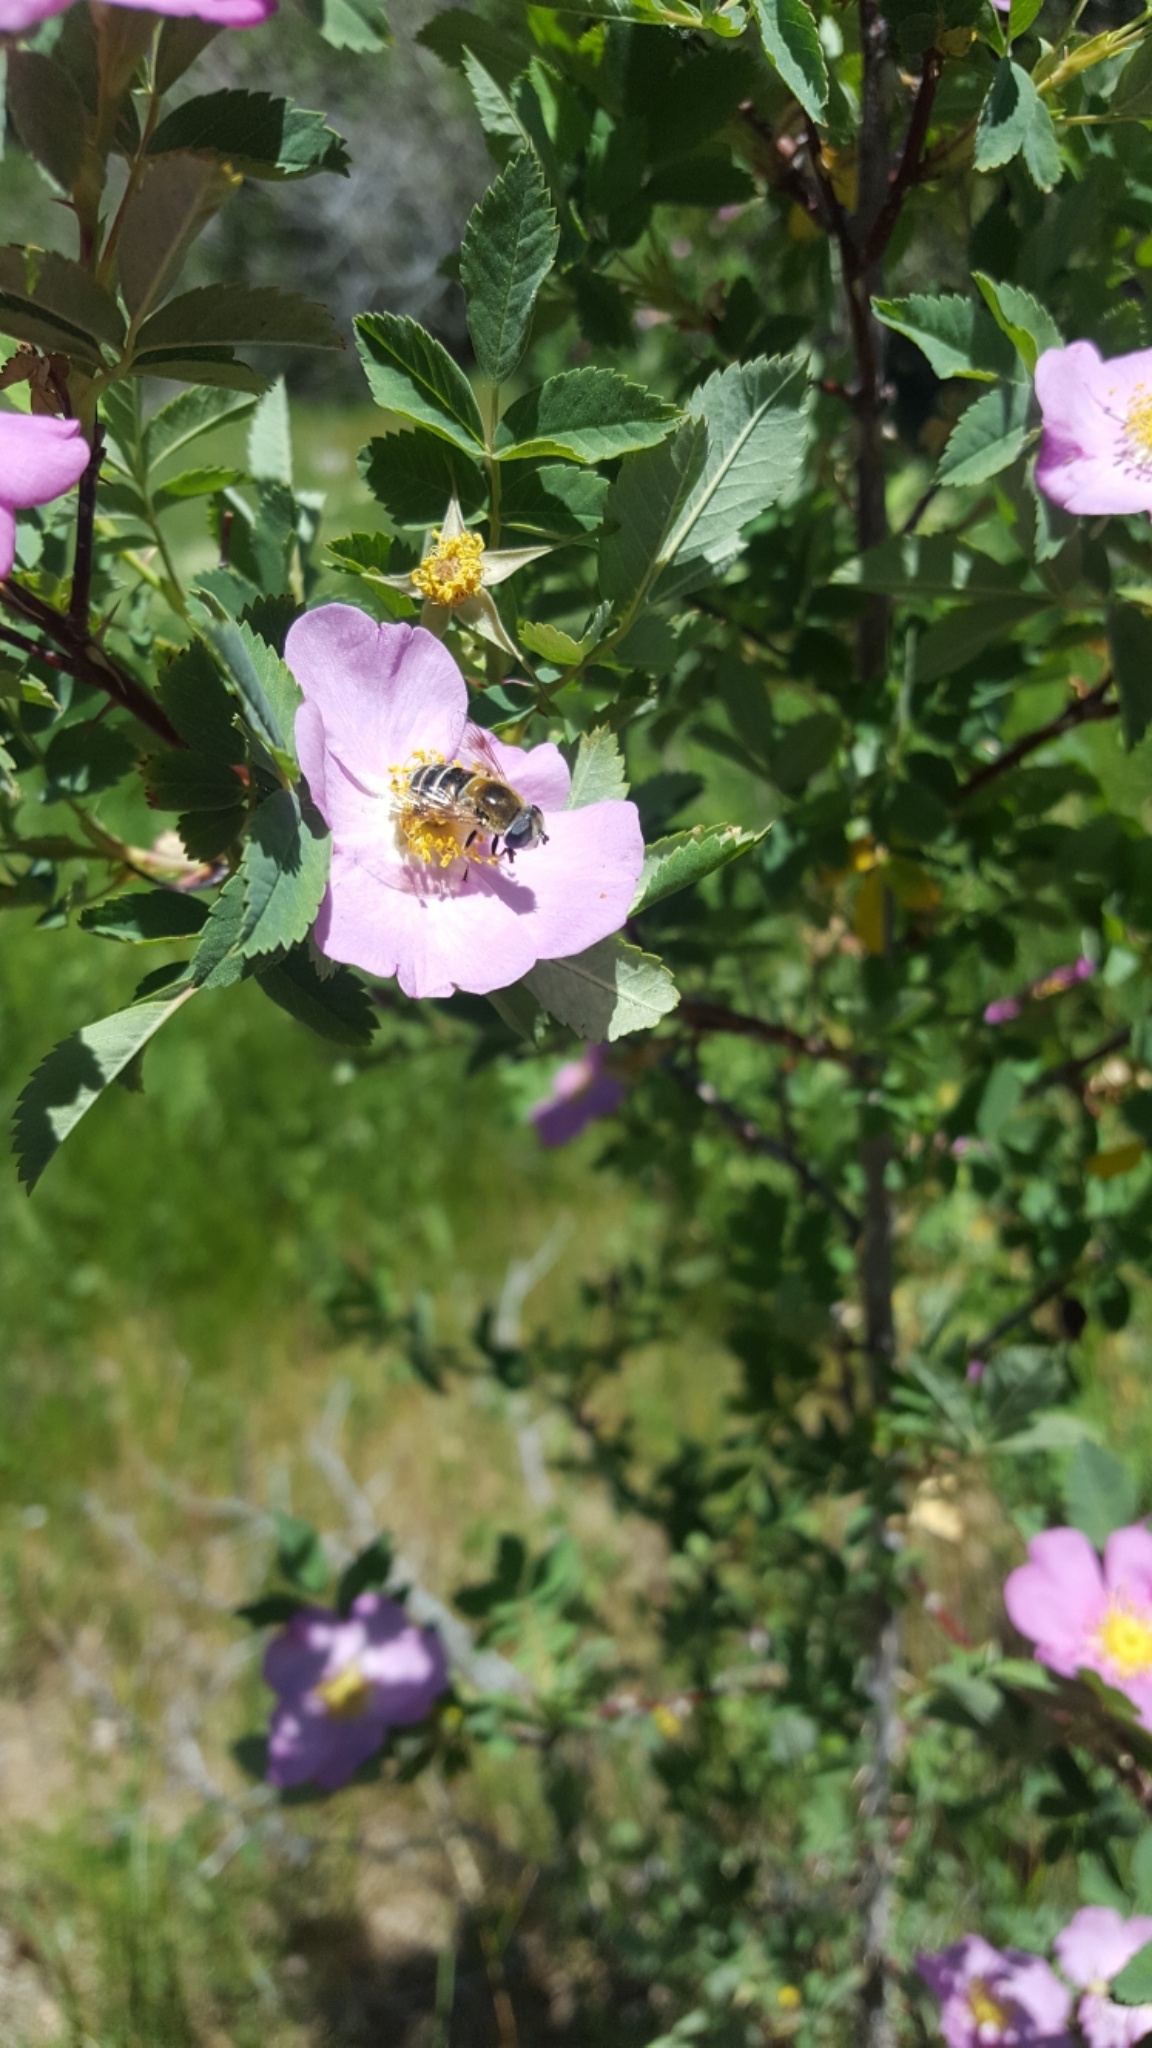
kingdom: Plantae
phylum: Tracheophyta
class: Magnoliopsida
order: Rosales
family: Rosaceae
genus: Rosa
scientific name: Rosa woodsii
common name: Woods's rose
